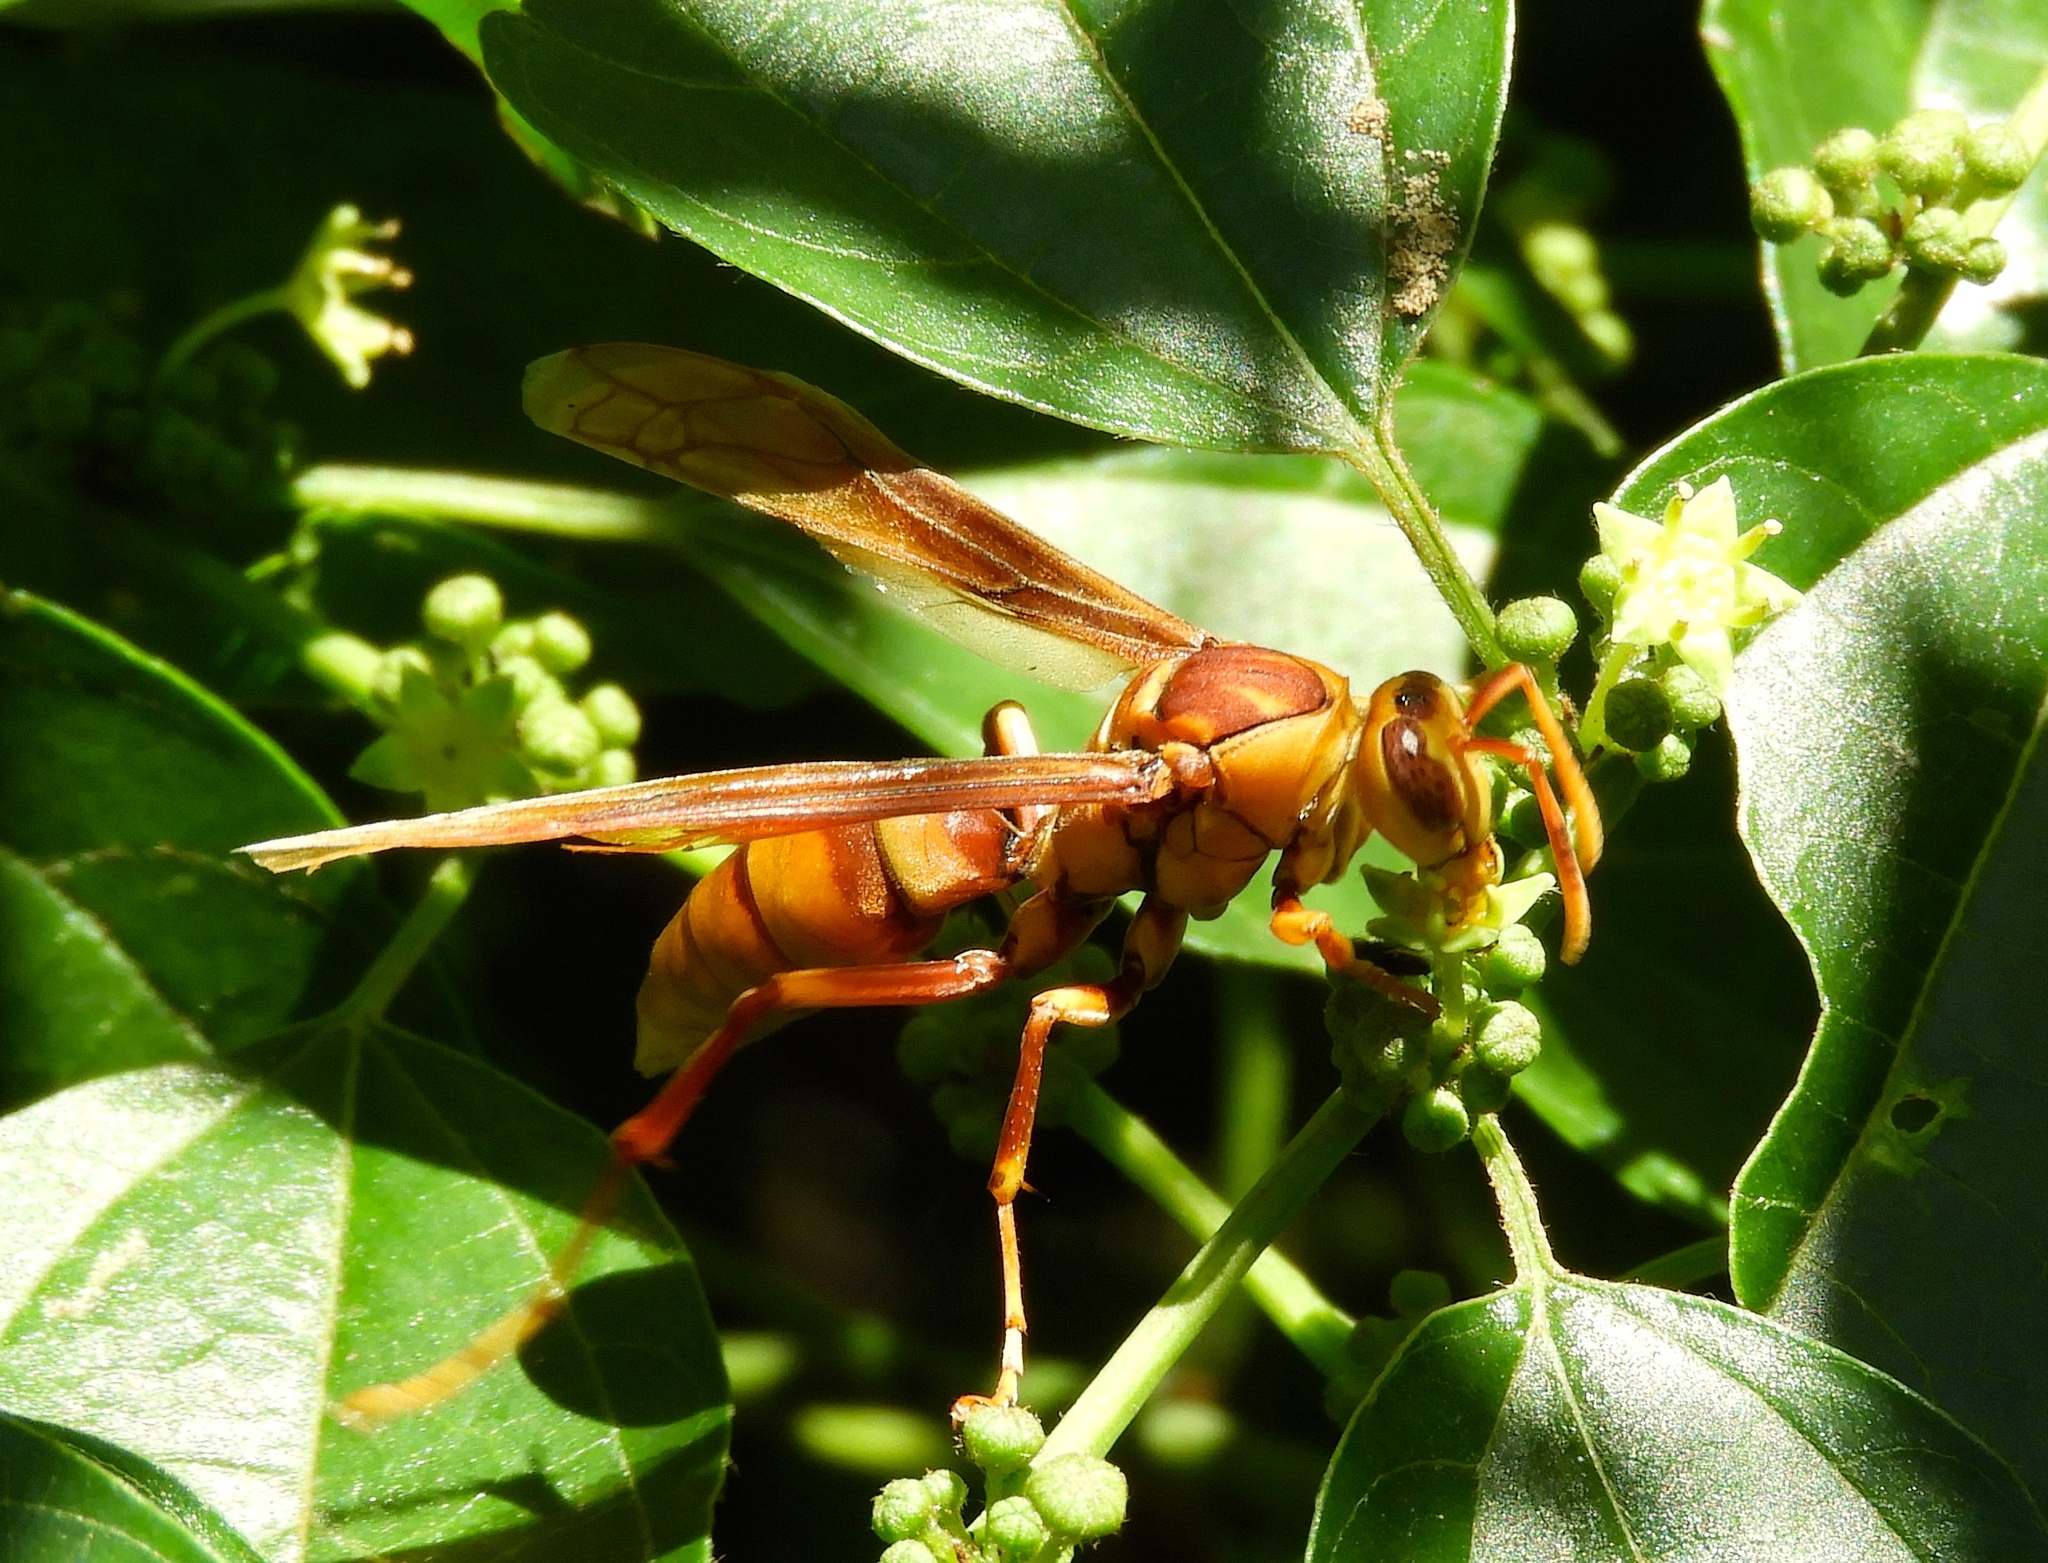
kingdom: Animalia
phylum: Arthropoda
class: Insecta
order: Hymenoptera
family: Eumenidae
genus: Polistes
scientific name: Polistes carnifex
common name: Paper wasp
